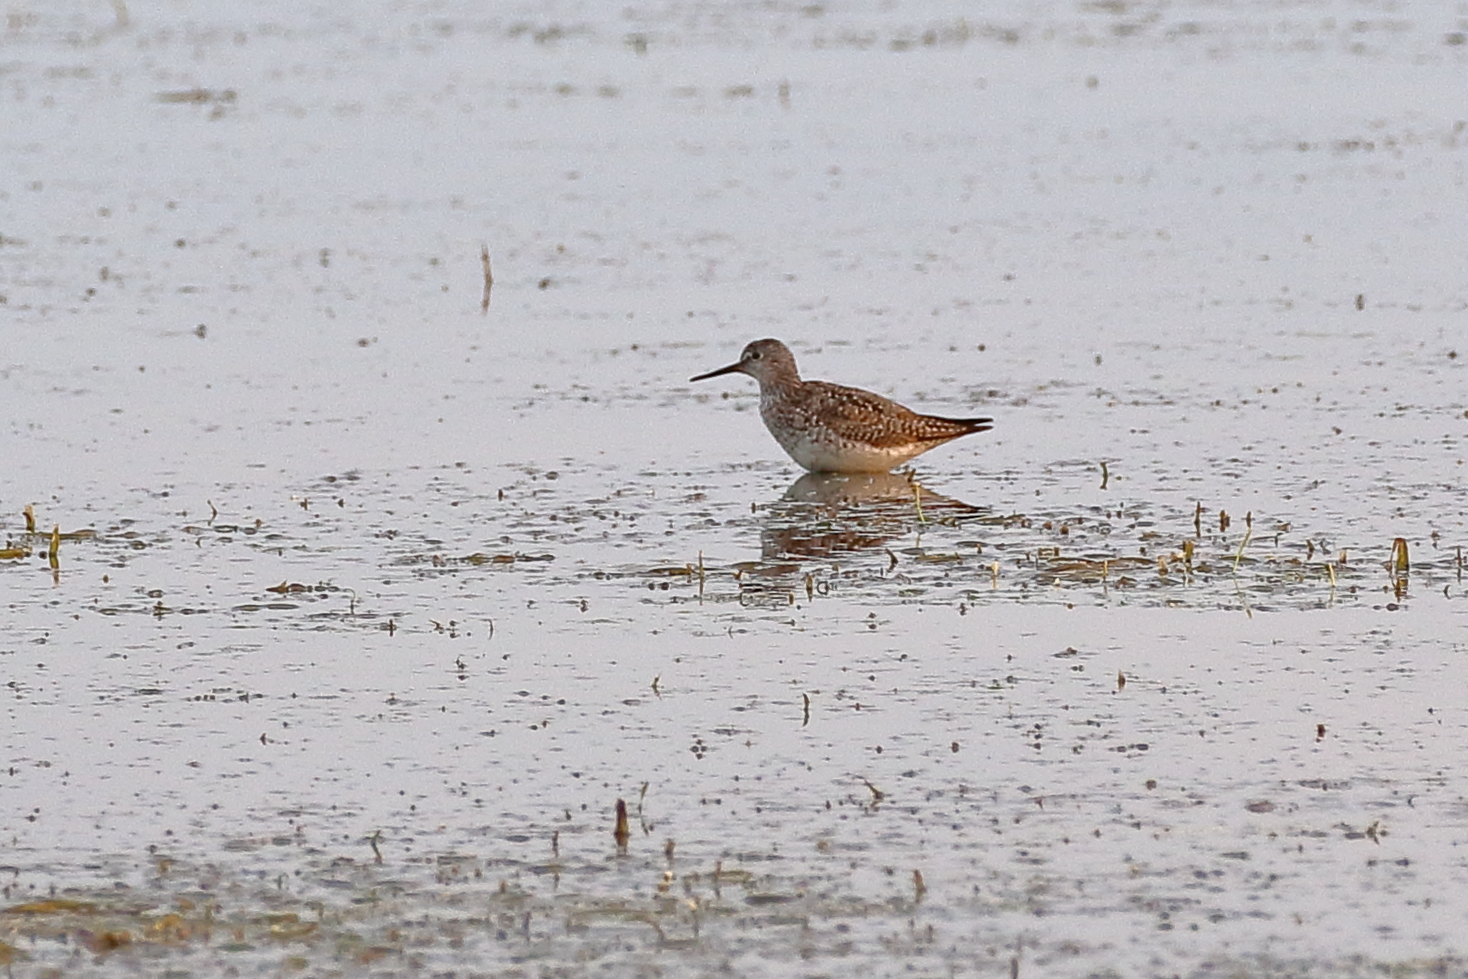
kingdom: Animalia
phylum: Chordata
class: Aves
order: Charadriiformes
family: Scolopacidae
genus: Tringa
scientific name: Tringa flavipes
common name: Lesser yellowlegs
